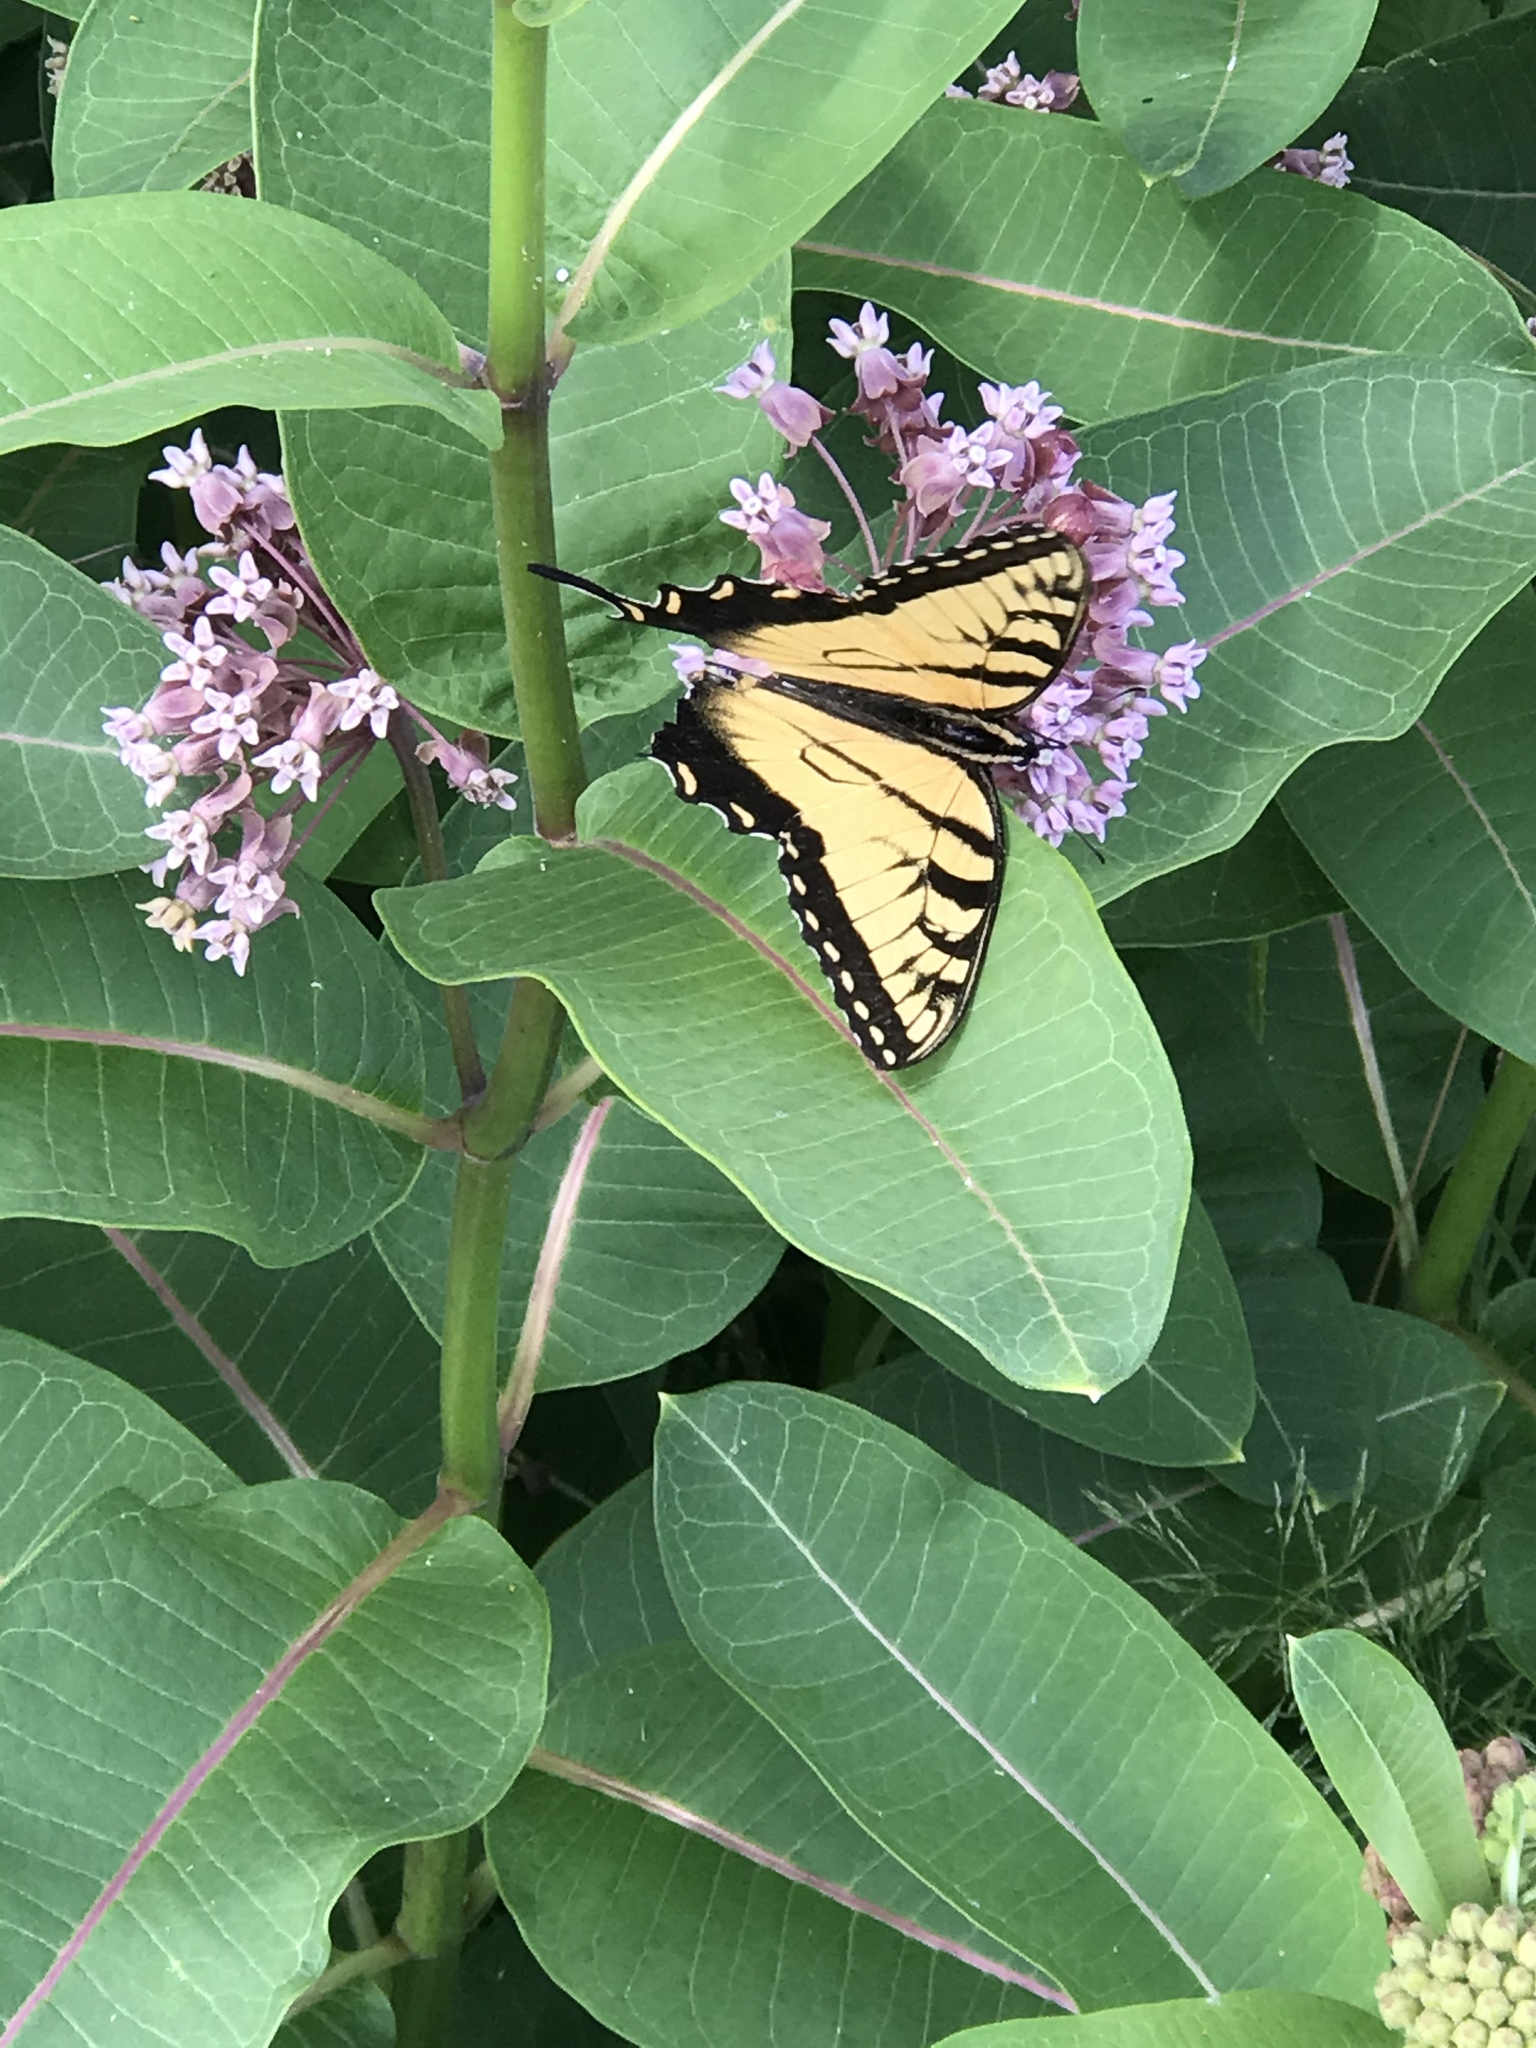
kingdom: Animalia
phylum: Arthropoda
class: Insecta
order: Lepidoptera
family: Papilionidae
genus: Papilio
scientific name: Papilio glaucus
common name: Tiger swallowtail
